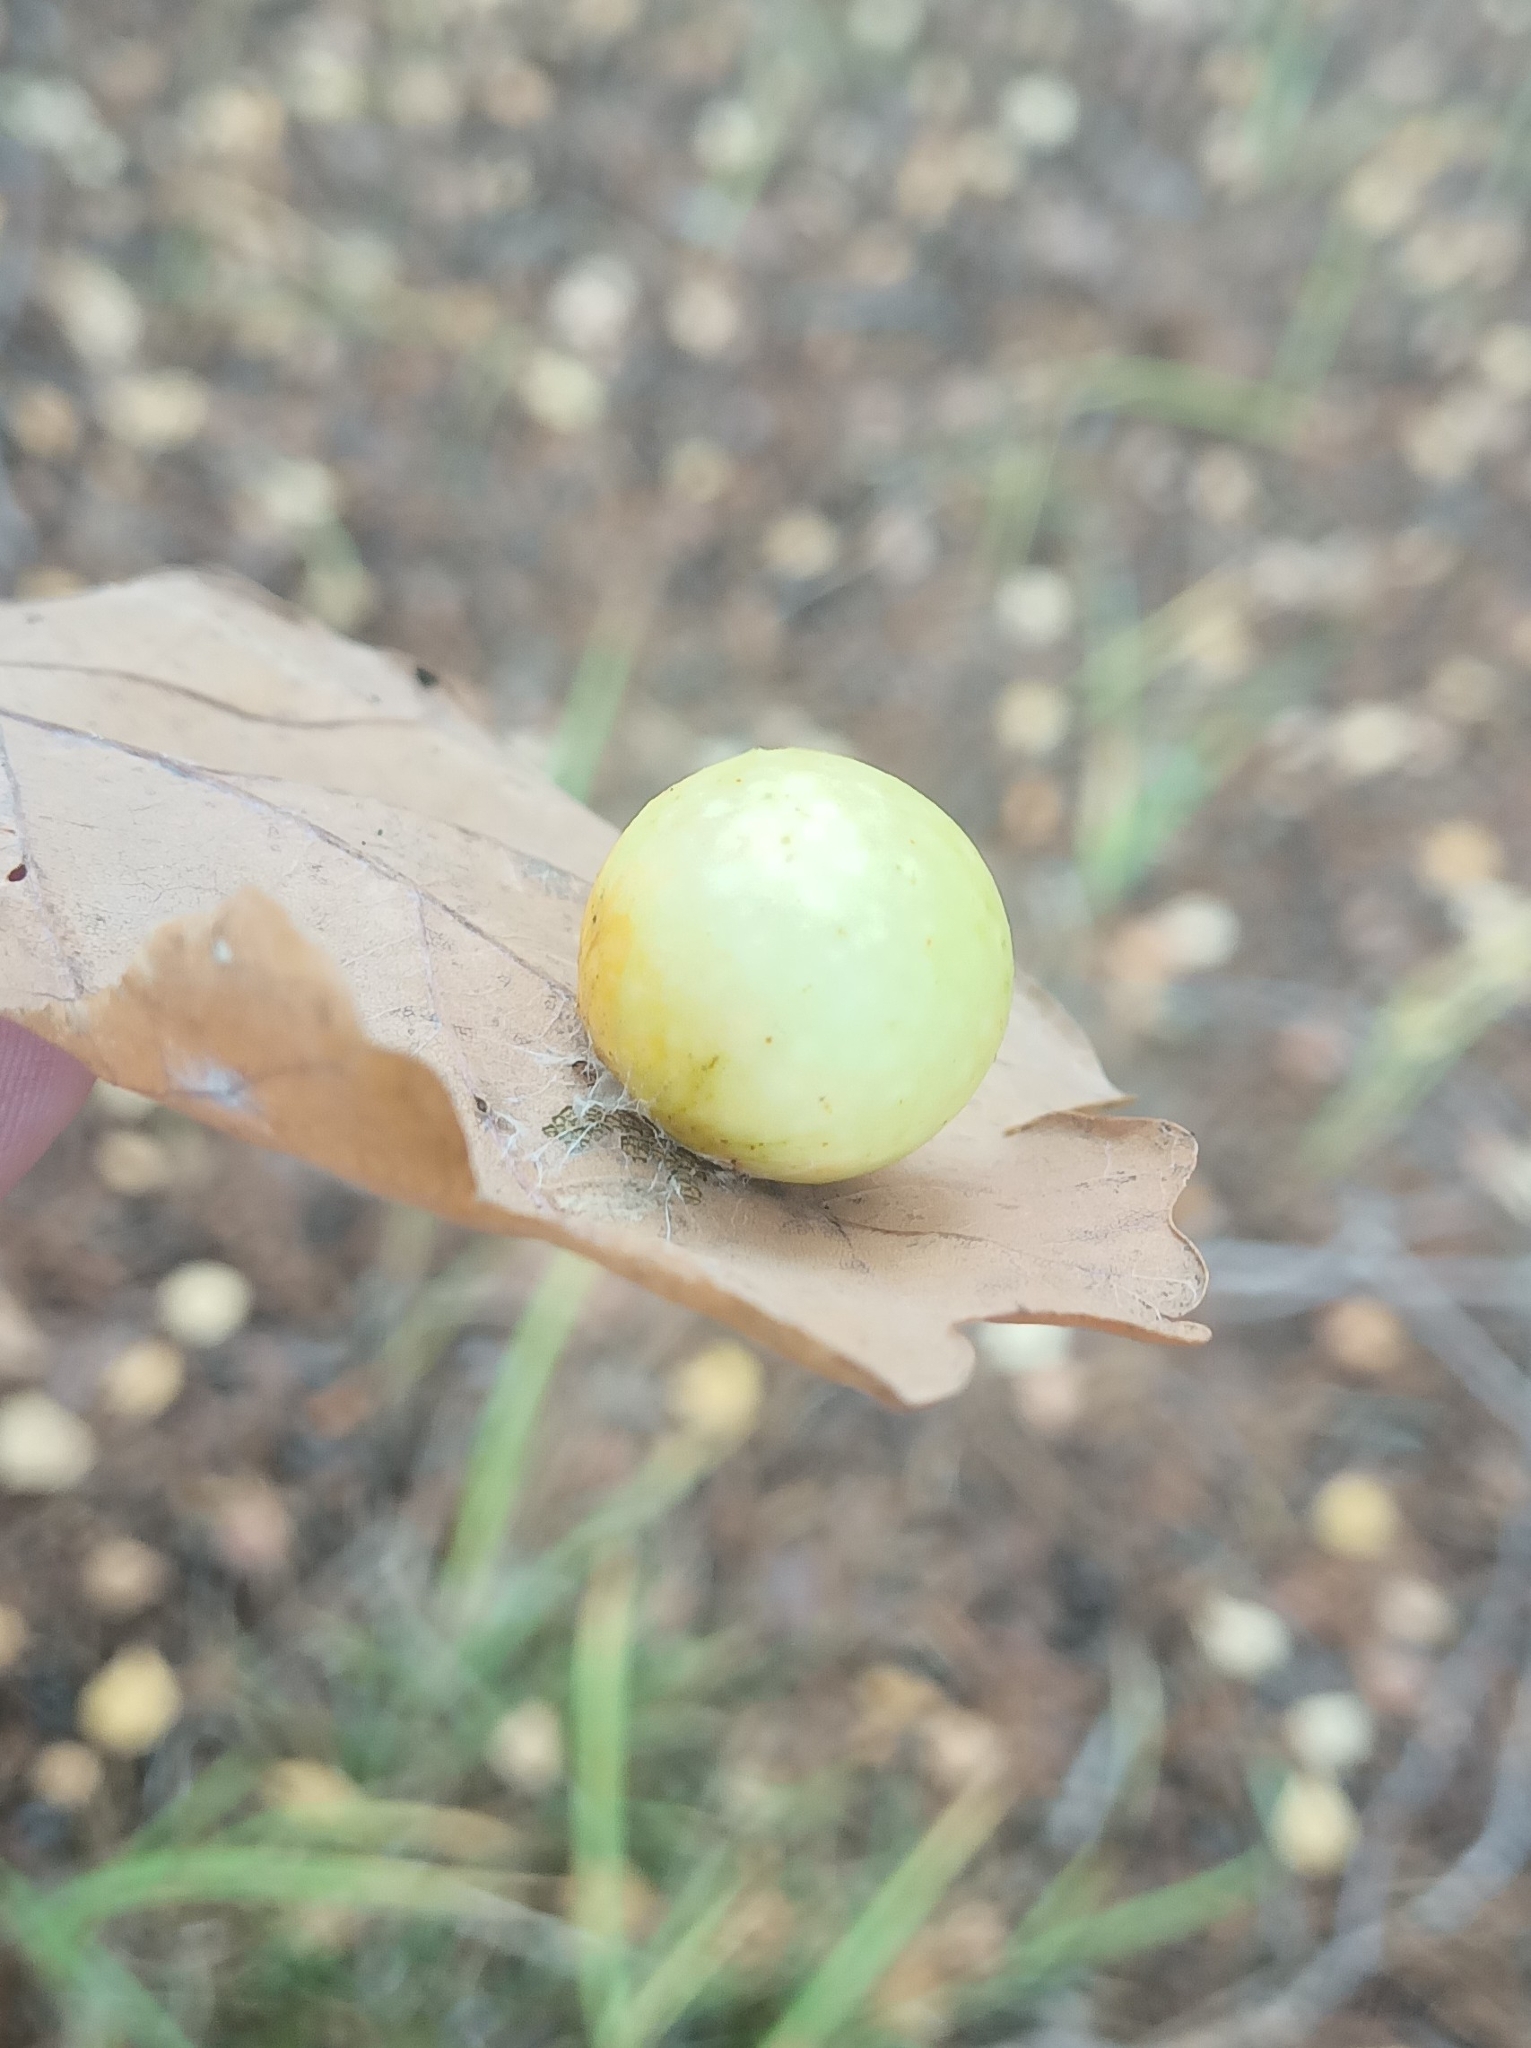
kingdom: Animalia
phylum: Arthropoda
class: Insecta
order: Hymenoptera
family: Cynipidae
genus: Cynips
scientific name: Cynips quercusfolii
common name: Cherry gall
